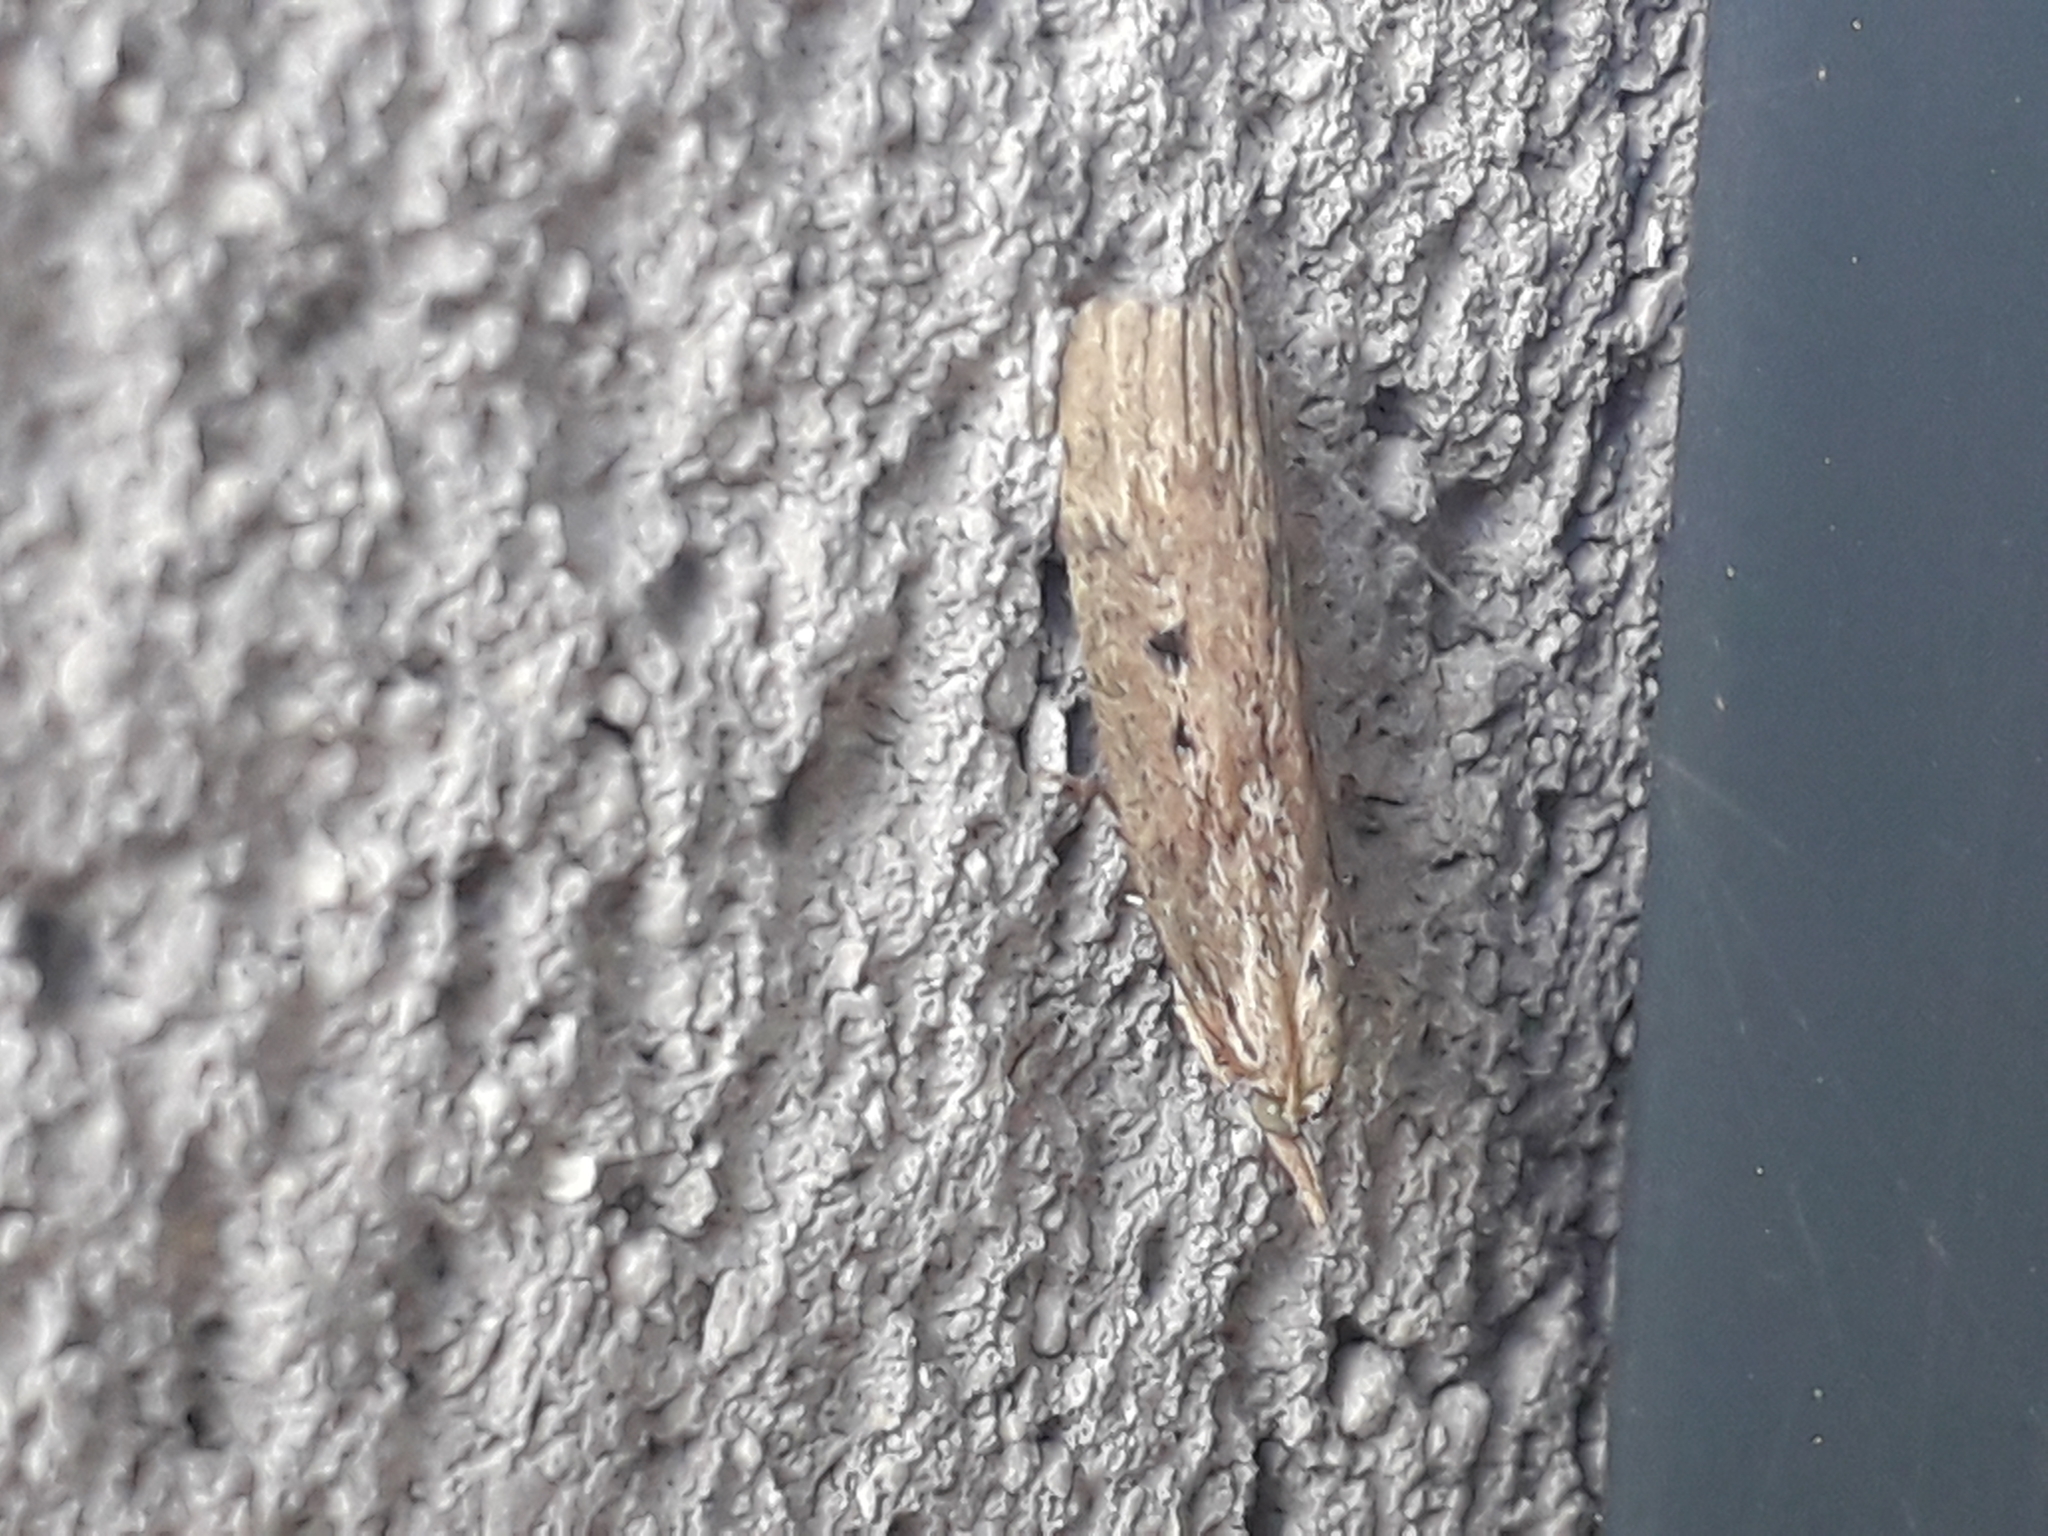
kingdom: Animalia
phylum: Arthropoda
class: Insecta
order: Lepidoptera
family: Pyralidae
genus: Aphomia
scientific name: Aphomia sociella
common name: Bee moth
